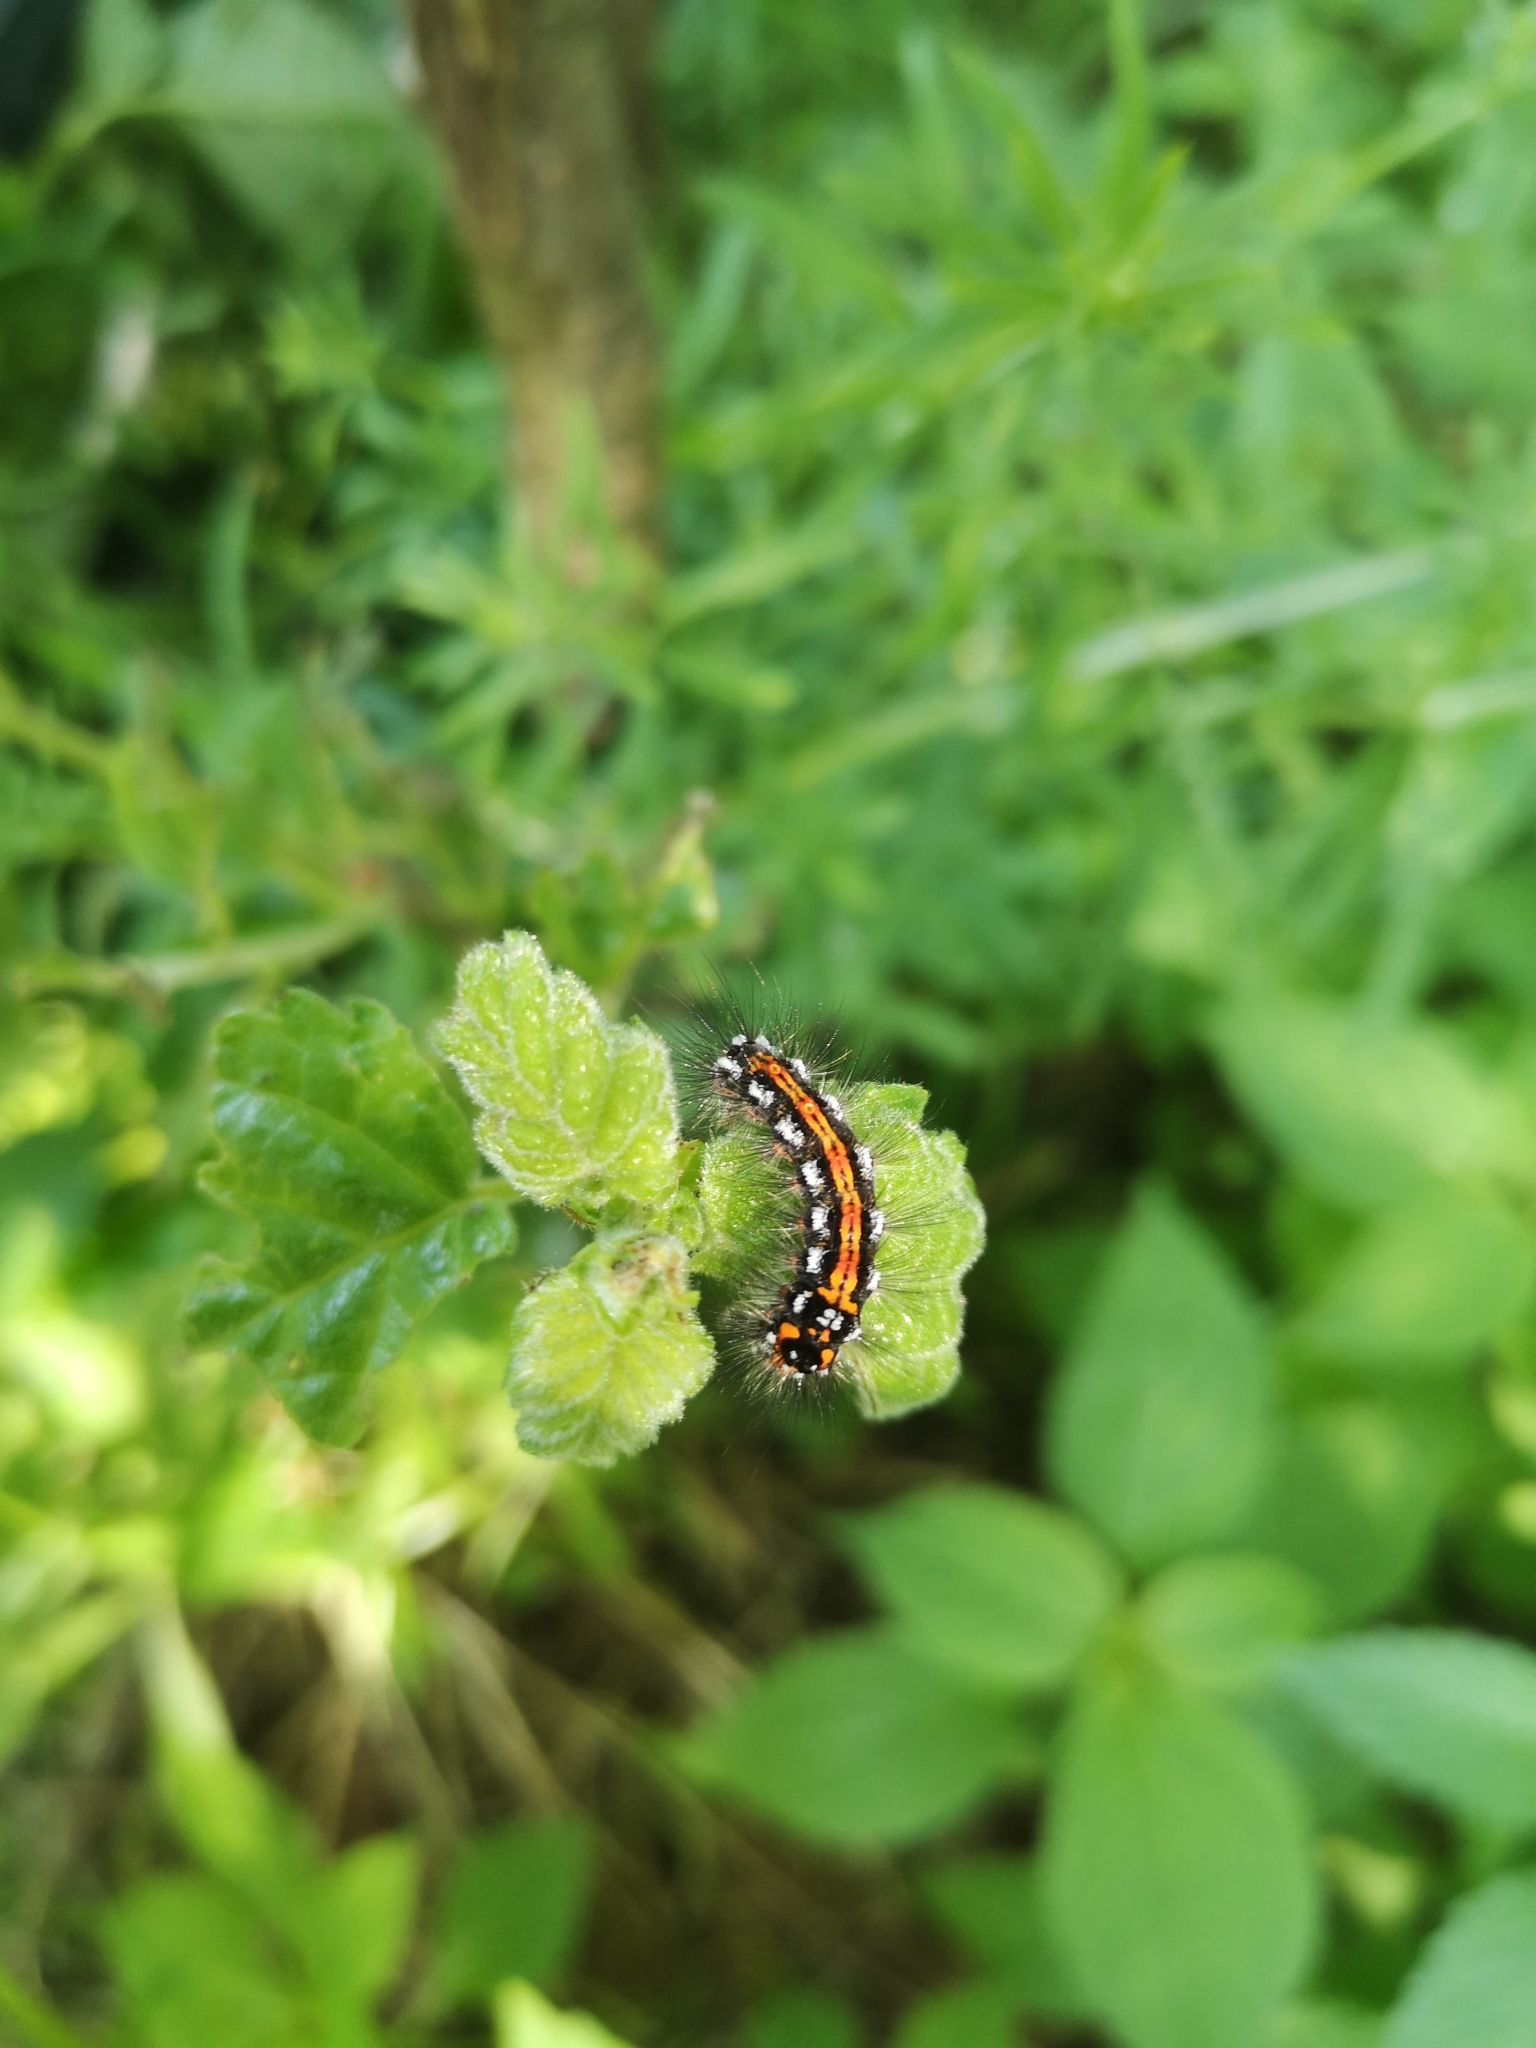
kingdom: Animalia
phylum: Arthropoda
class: Insecta
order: Lepidoptera
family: Erebidae
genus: Sphrageidus
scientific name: Sphrageidus similis
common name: Yellow-tail
